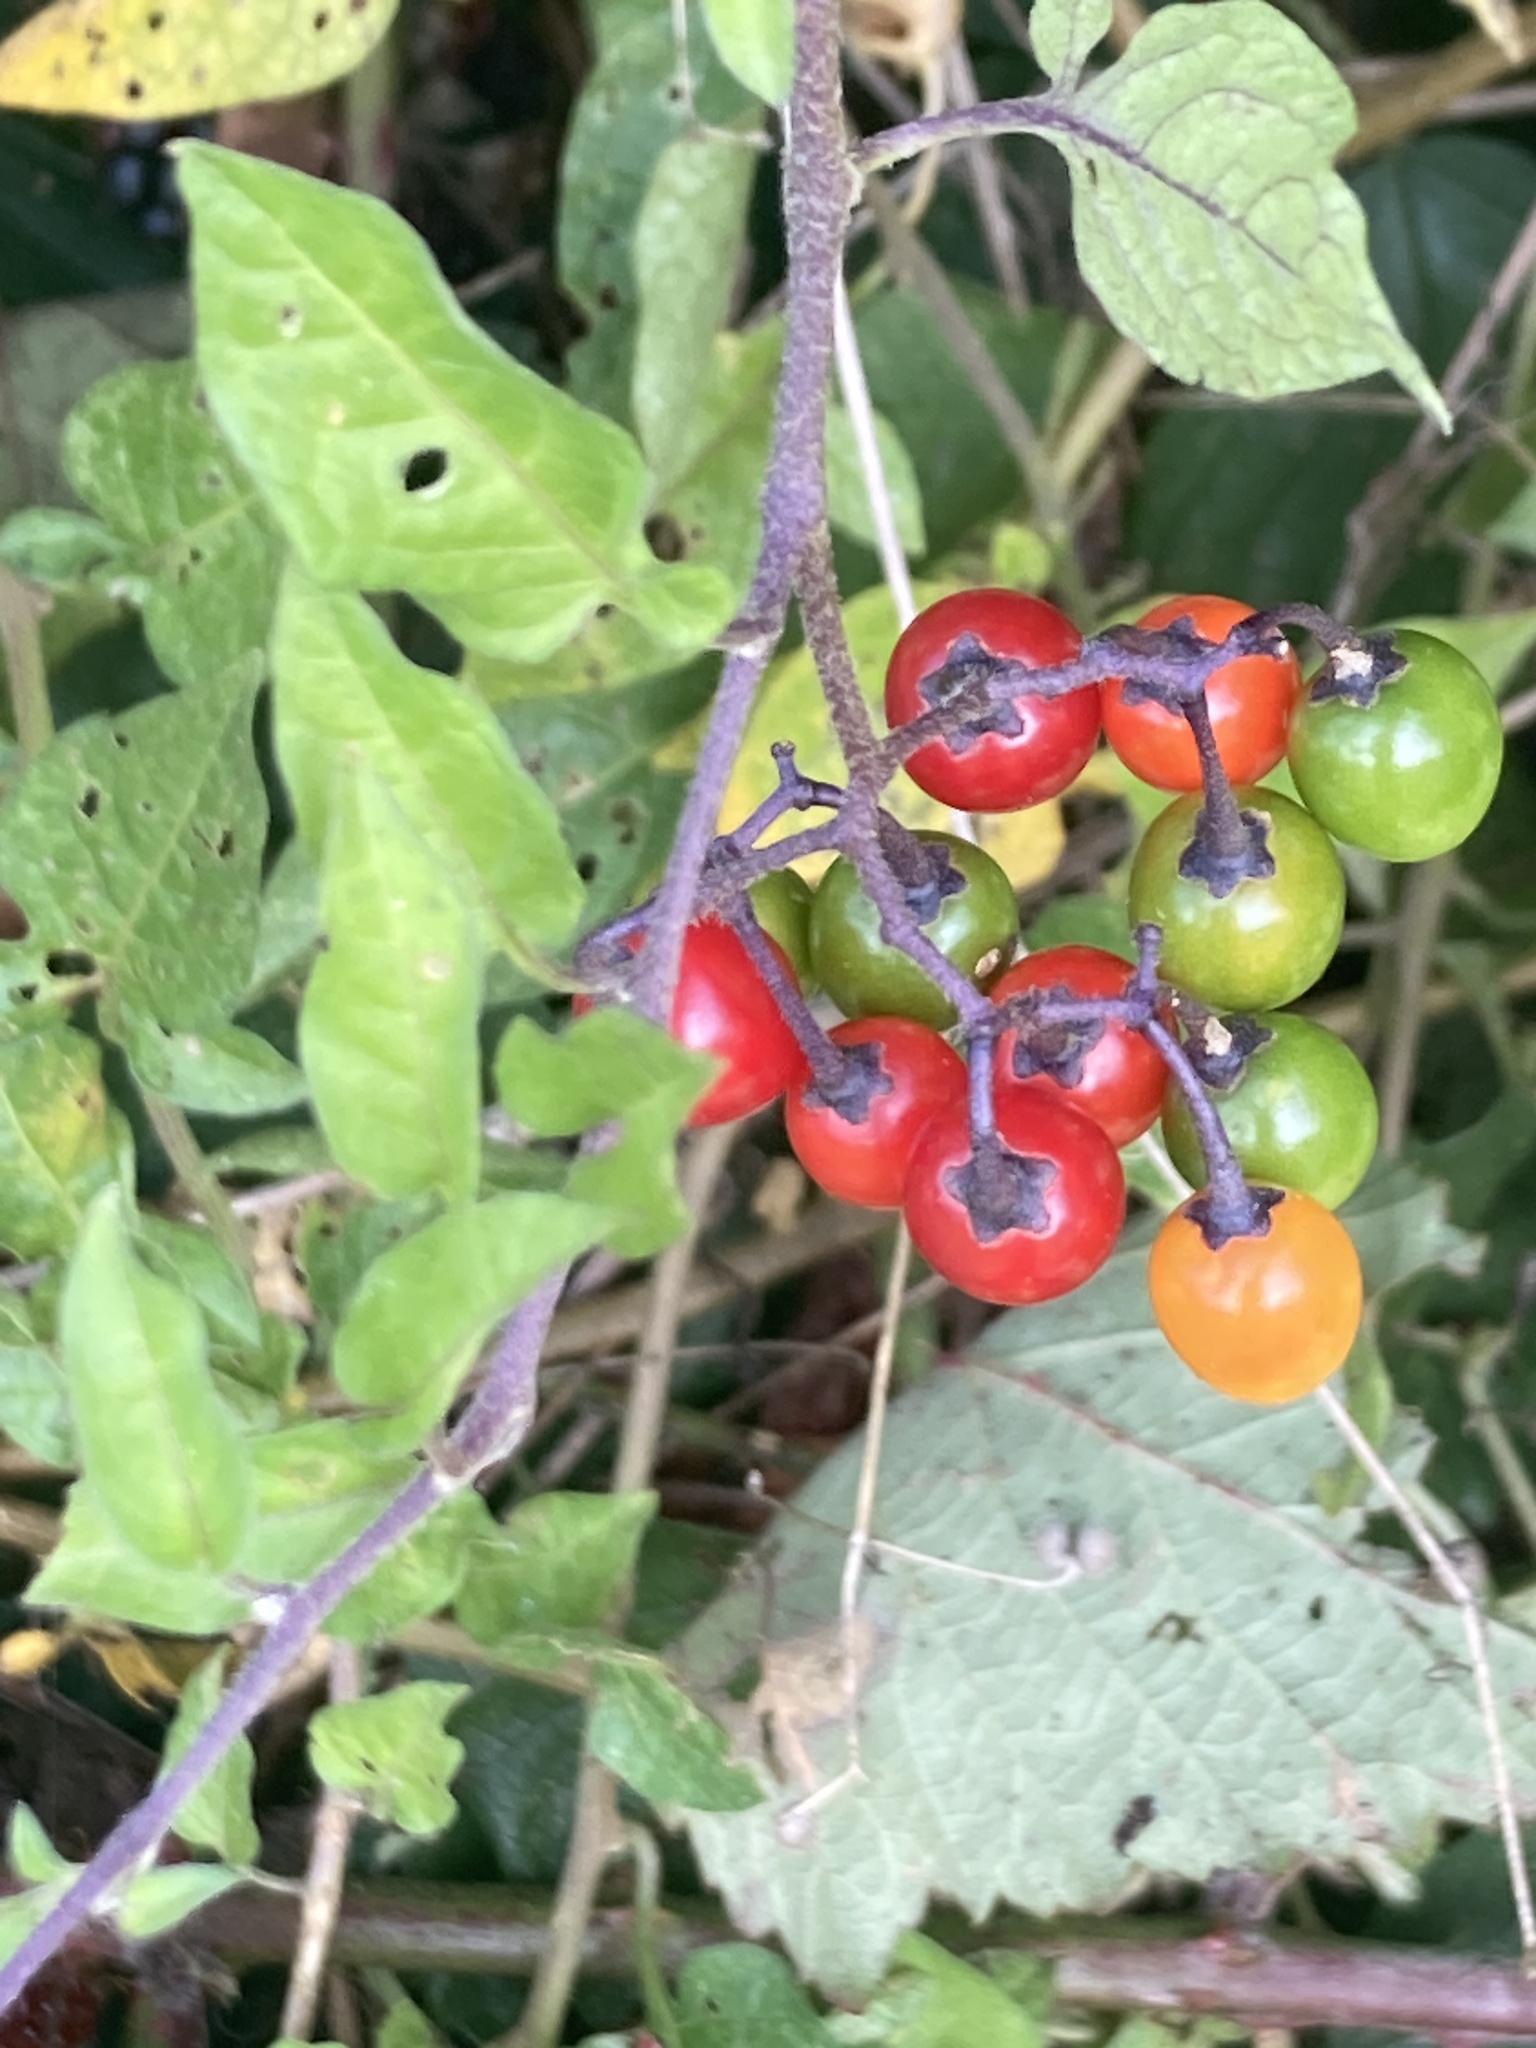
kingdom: Plantae
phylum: Tracheophyta
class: Magnoliopsida
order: Solanales
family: Solanaceae
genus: Solanum
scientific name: Solanum dulcamara
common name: Climbing nightshade
